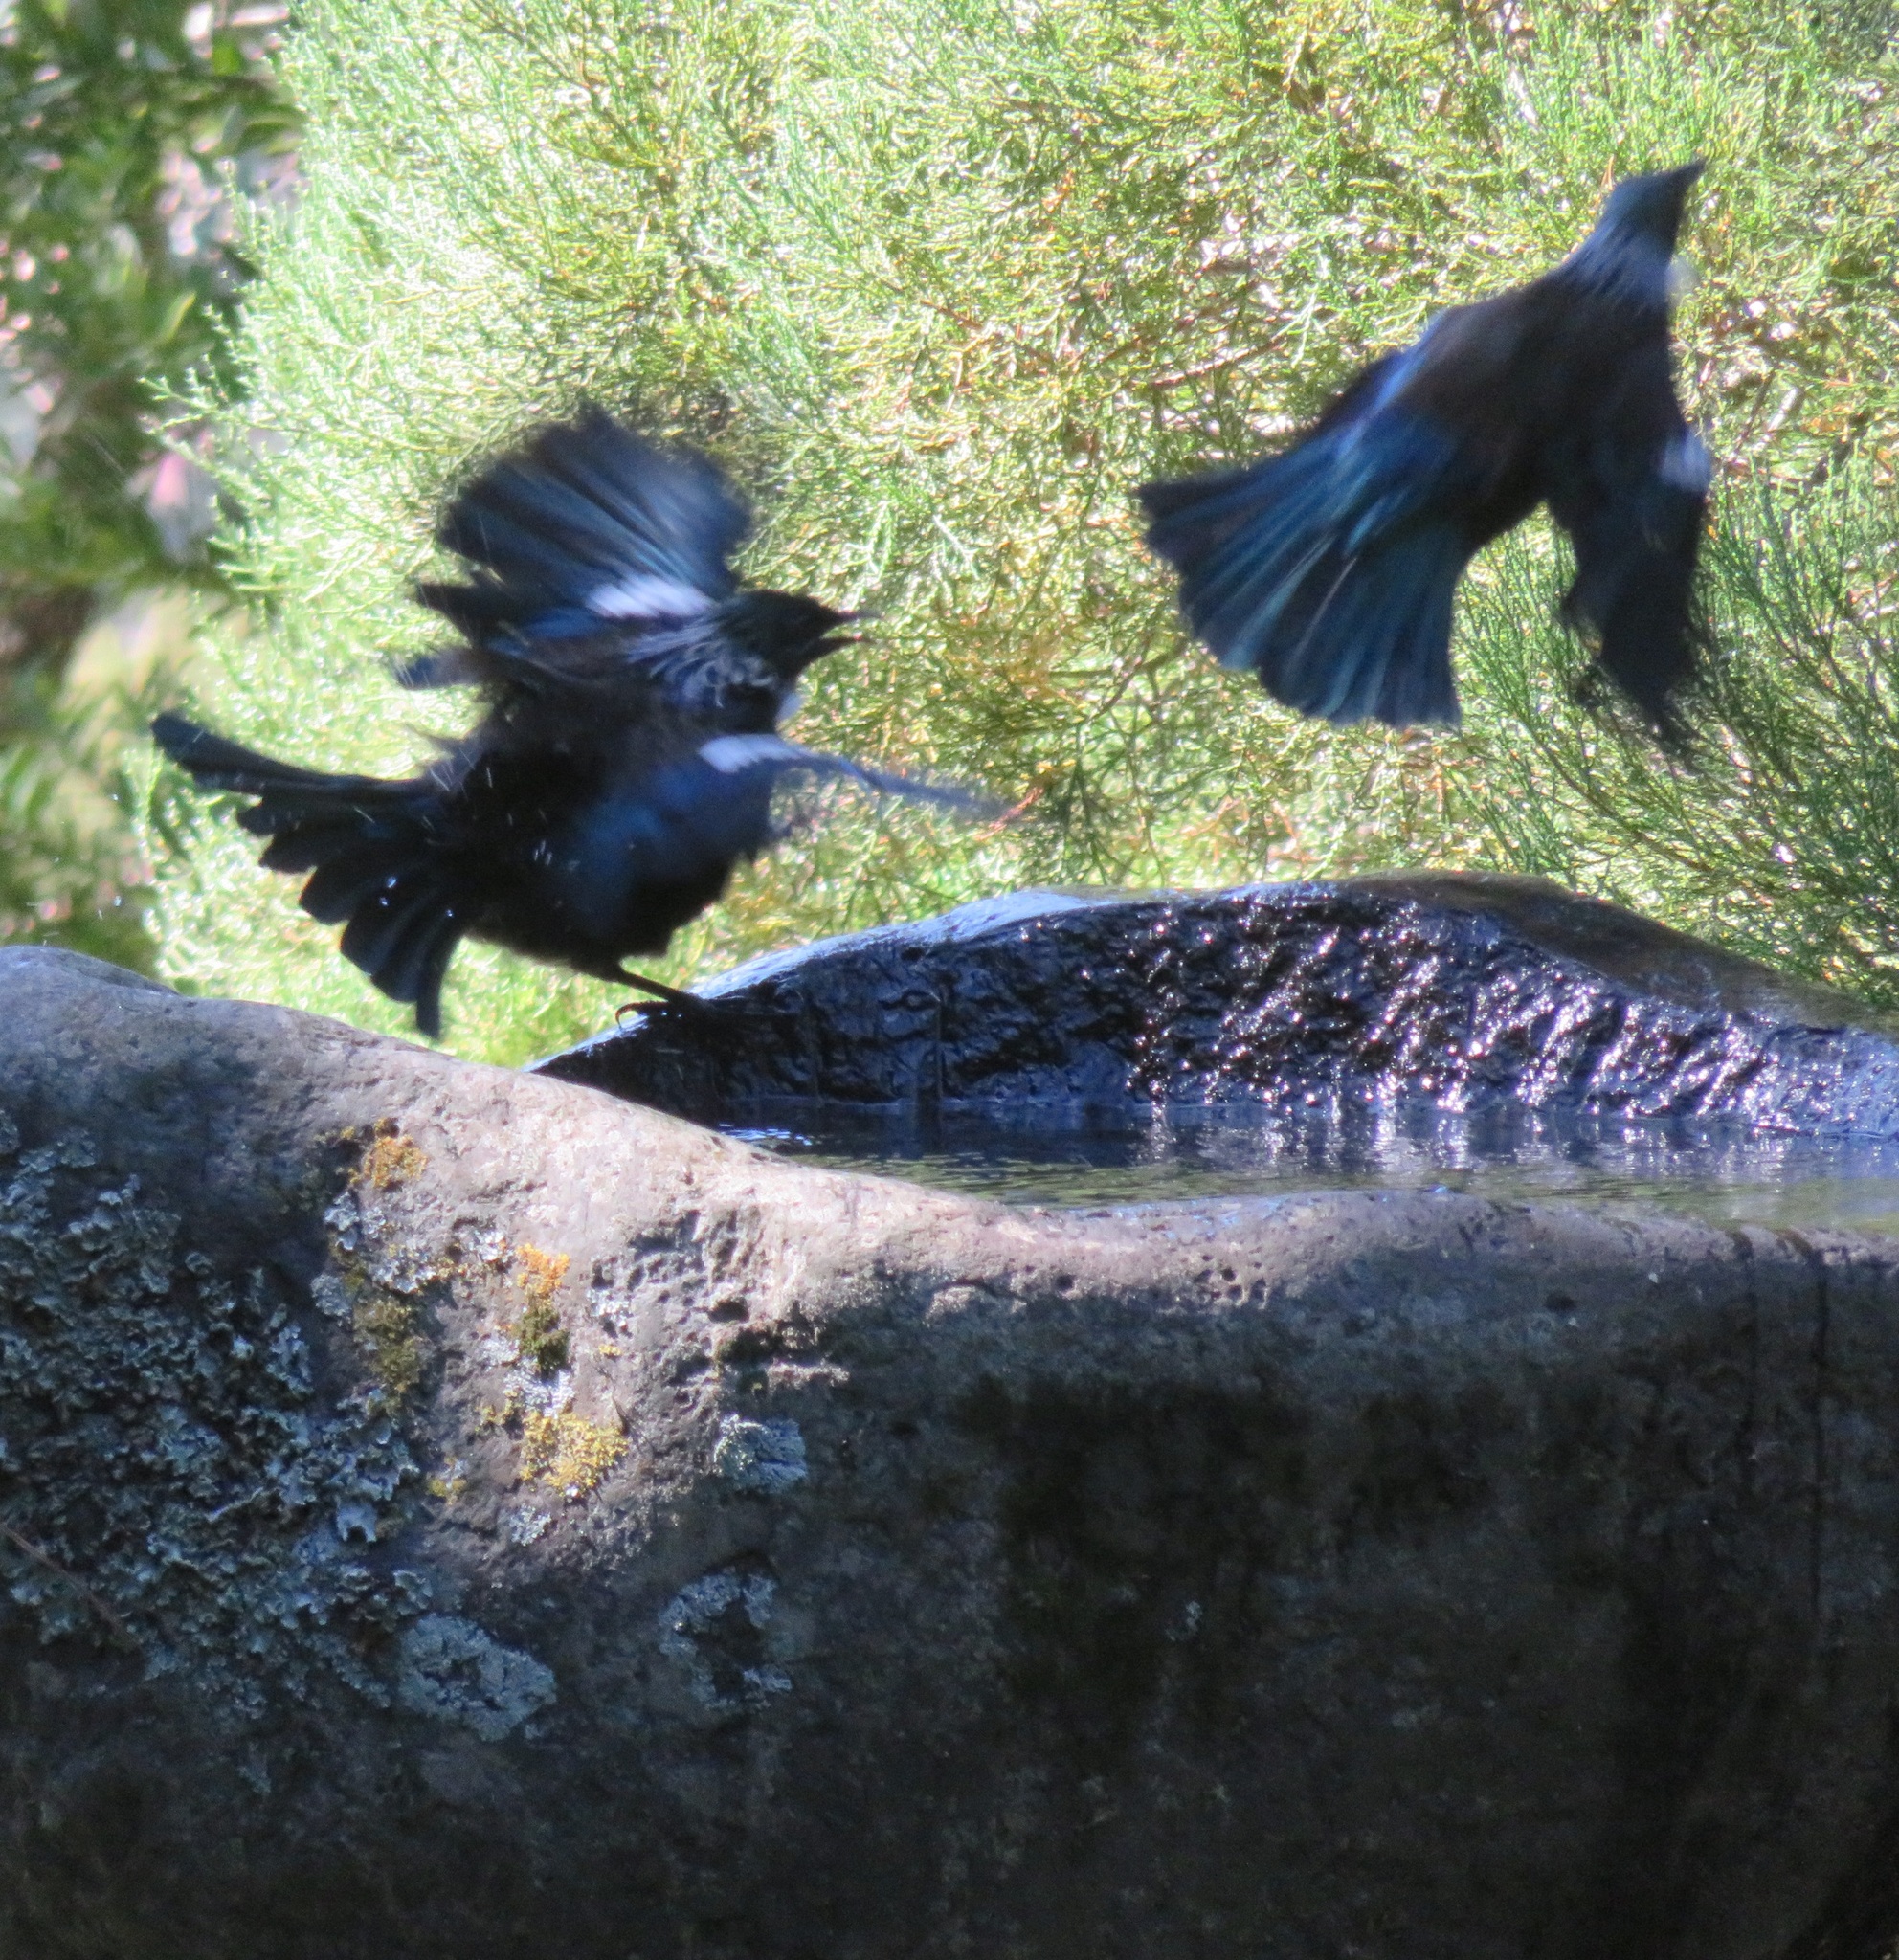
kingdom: Animalia
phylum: Chordata
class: Aves
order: Passeriformes
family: Meliphagidae
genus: Prosthemadera
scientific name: Prosthemadera novaeseelandiae
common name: Tui
